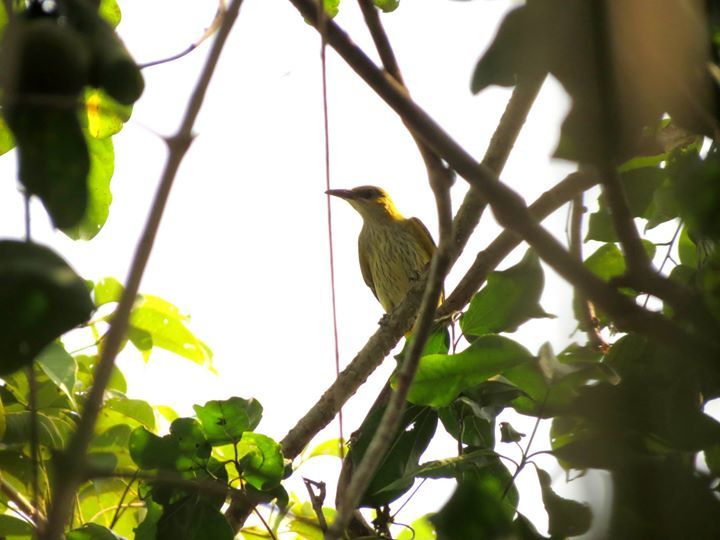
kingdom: Animalia
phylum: Chordata
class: Aves
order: Passeriformes
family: Oriolidae
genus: Oriolus
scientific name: Oriolus kundoo
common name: Indian golden oriole
